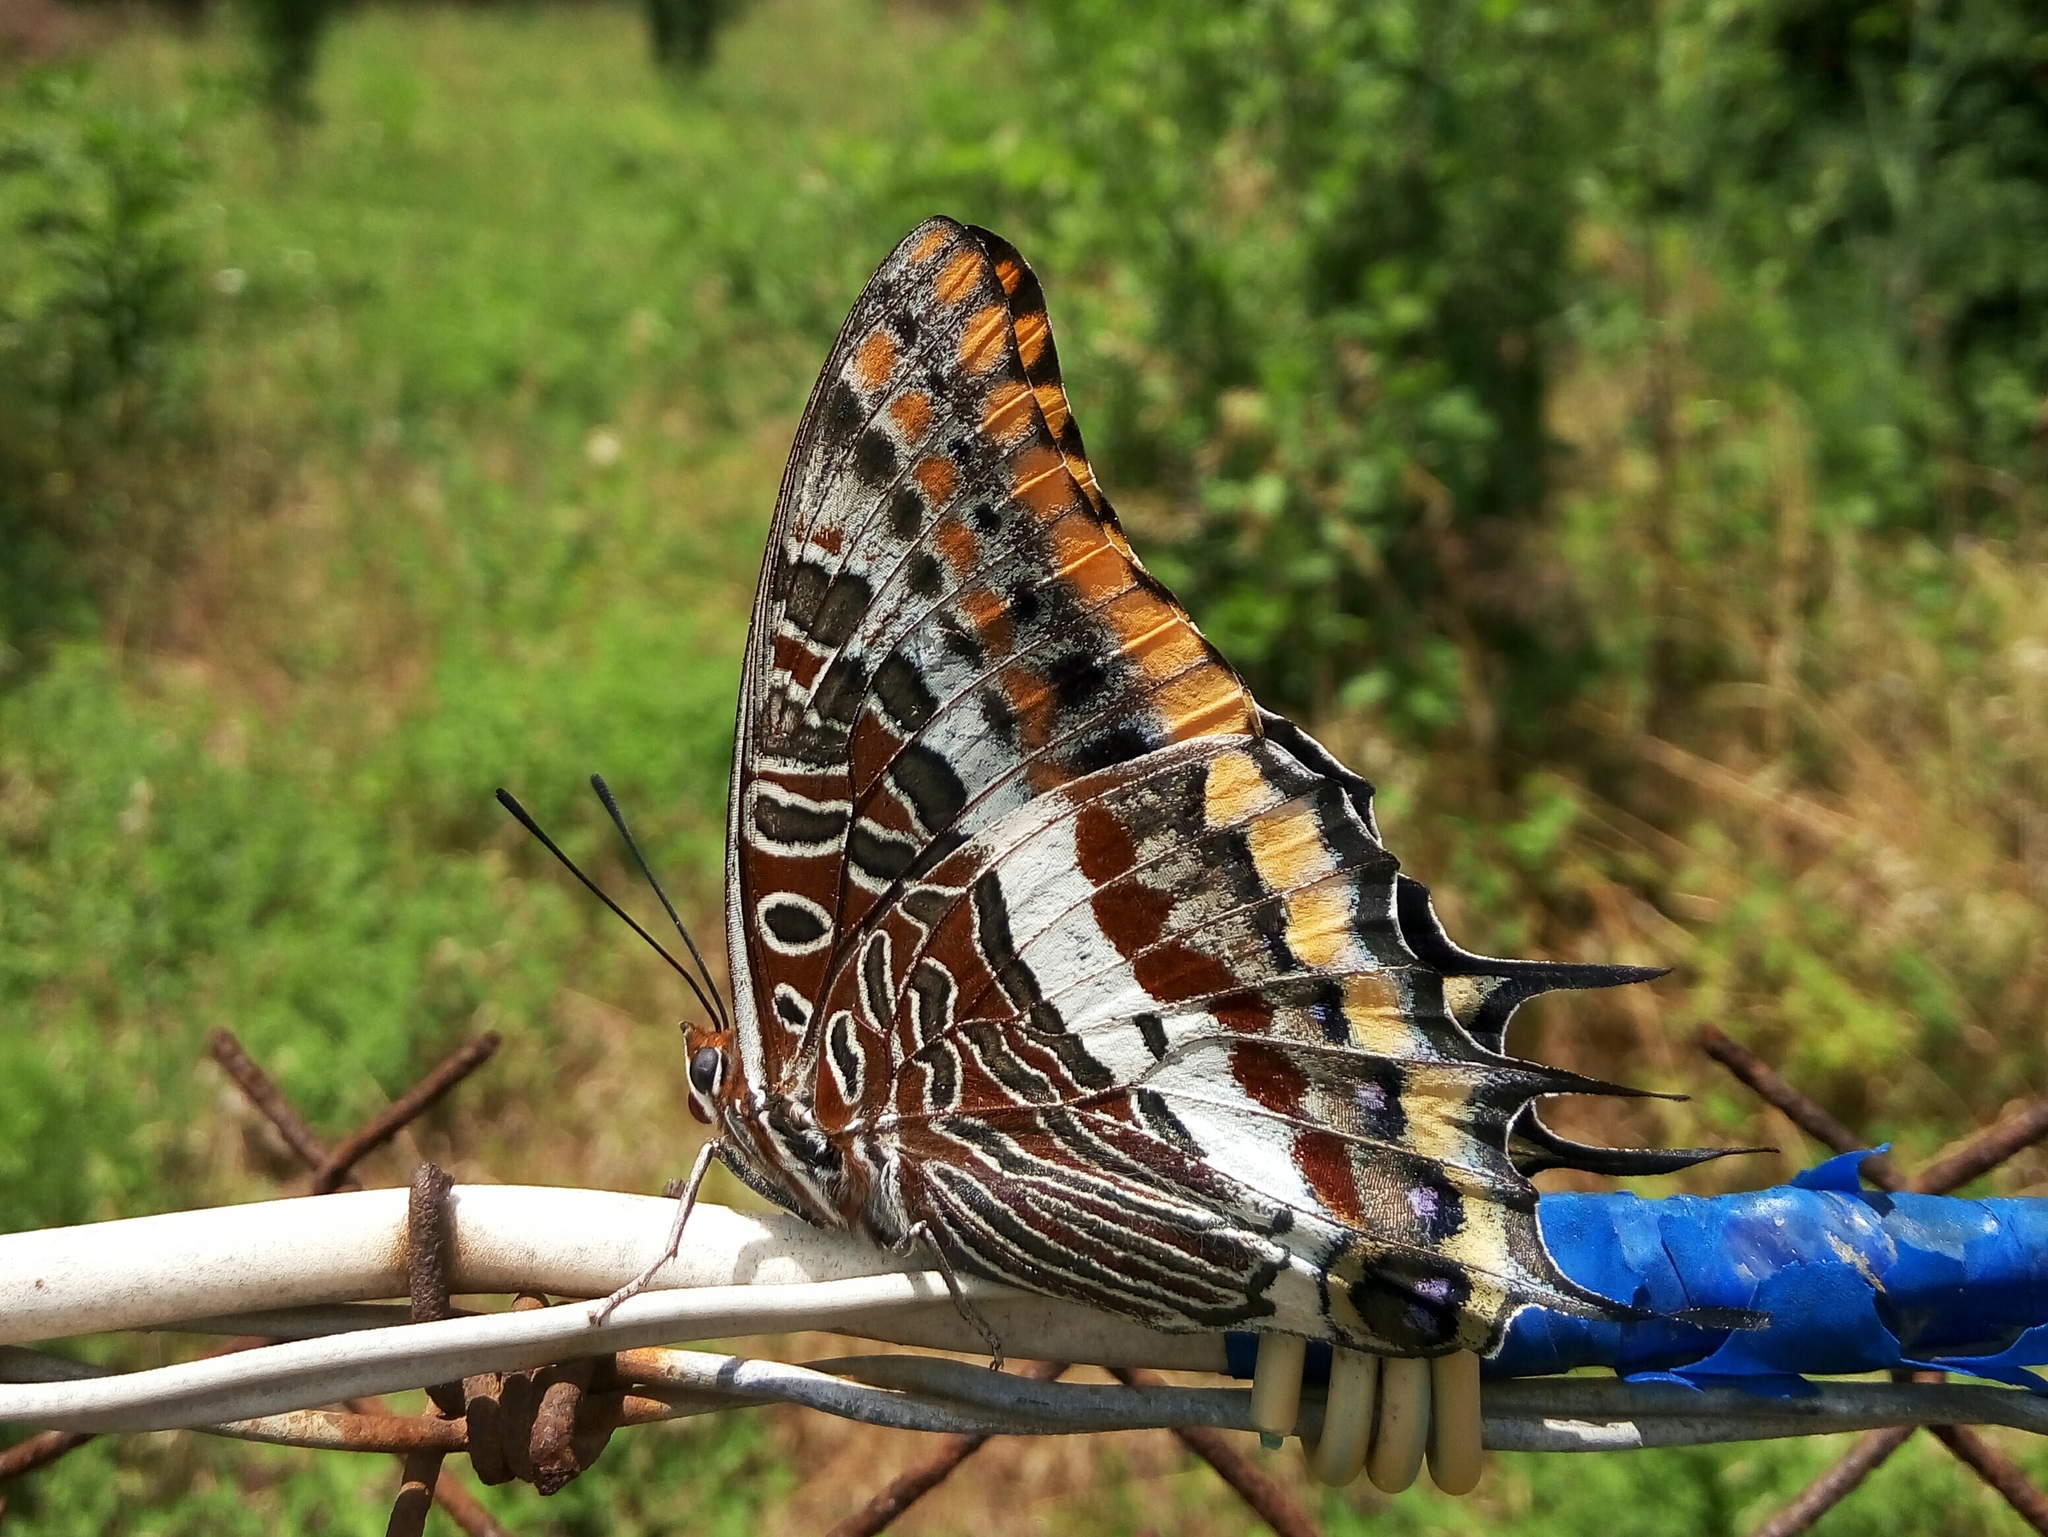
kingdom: Animalia
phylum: Arthropoda
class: Insecta
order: Lepidoptera
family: Nymphalidae
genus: Charaxes
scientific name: Charaxes jasius
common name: Two tailed pasha
